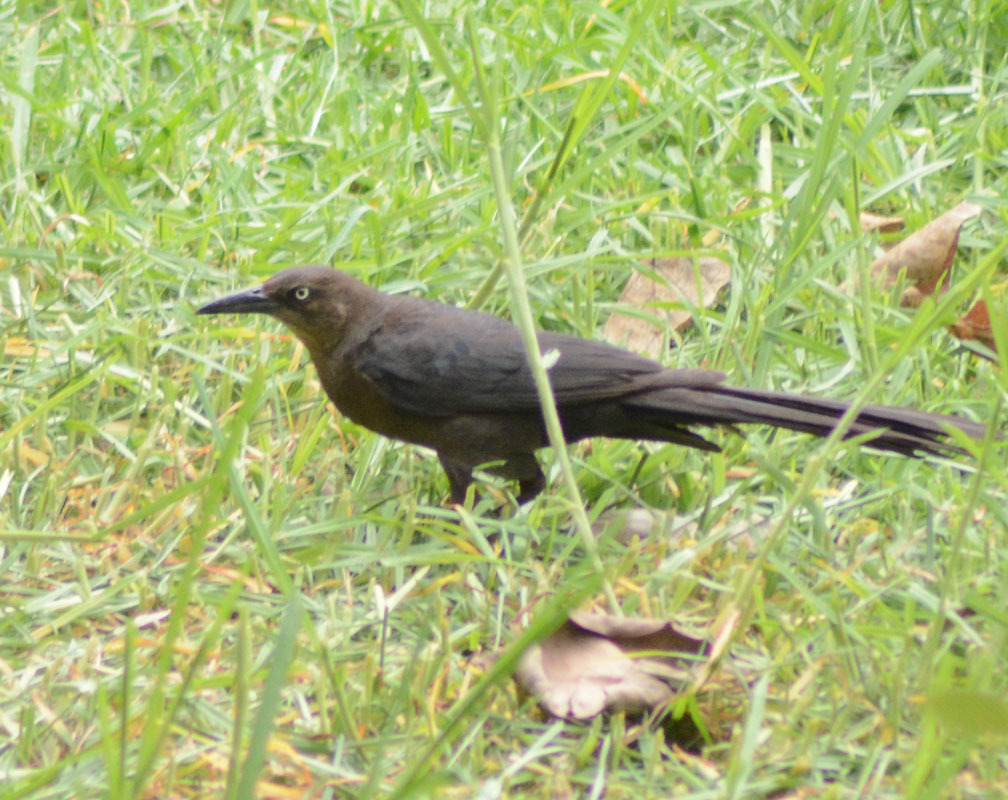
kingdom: Animalia
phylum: Chordata
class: Aves
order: Passeriformes
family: Icteridae
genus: Quiscalus
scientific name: Quiscalus mexicanus
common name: Great-tailed grackle
